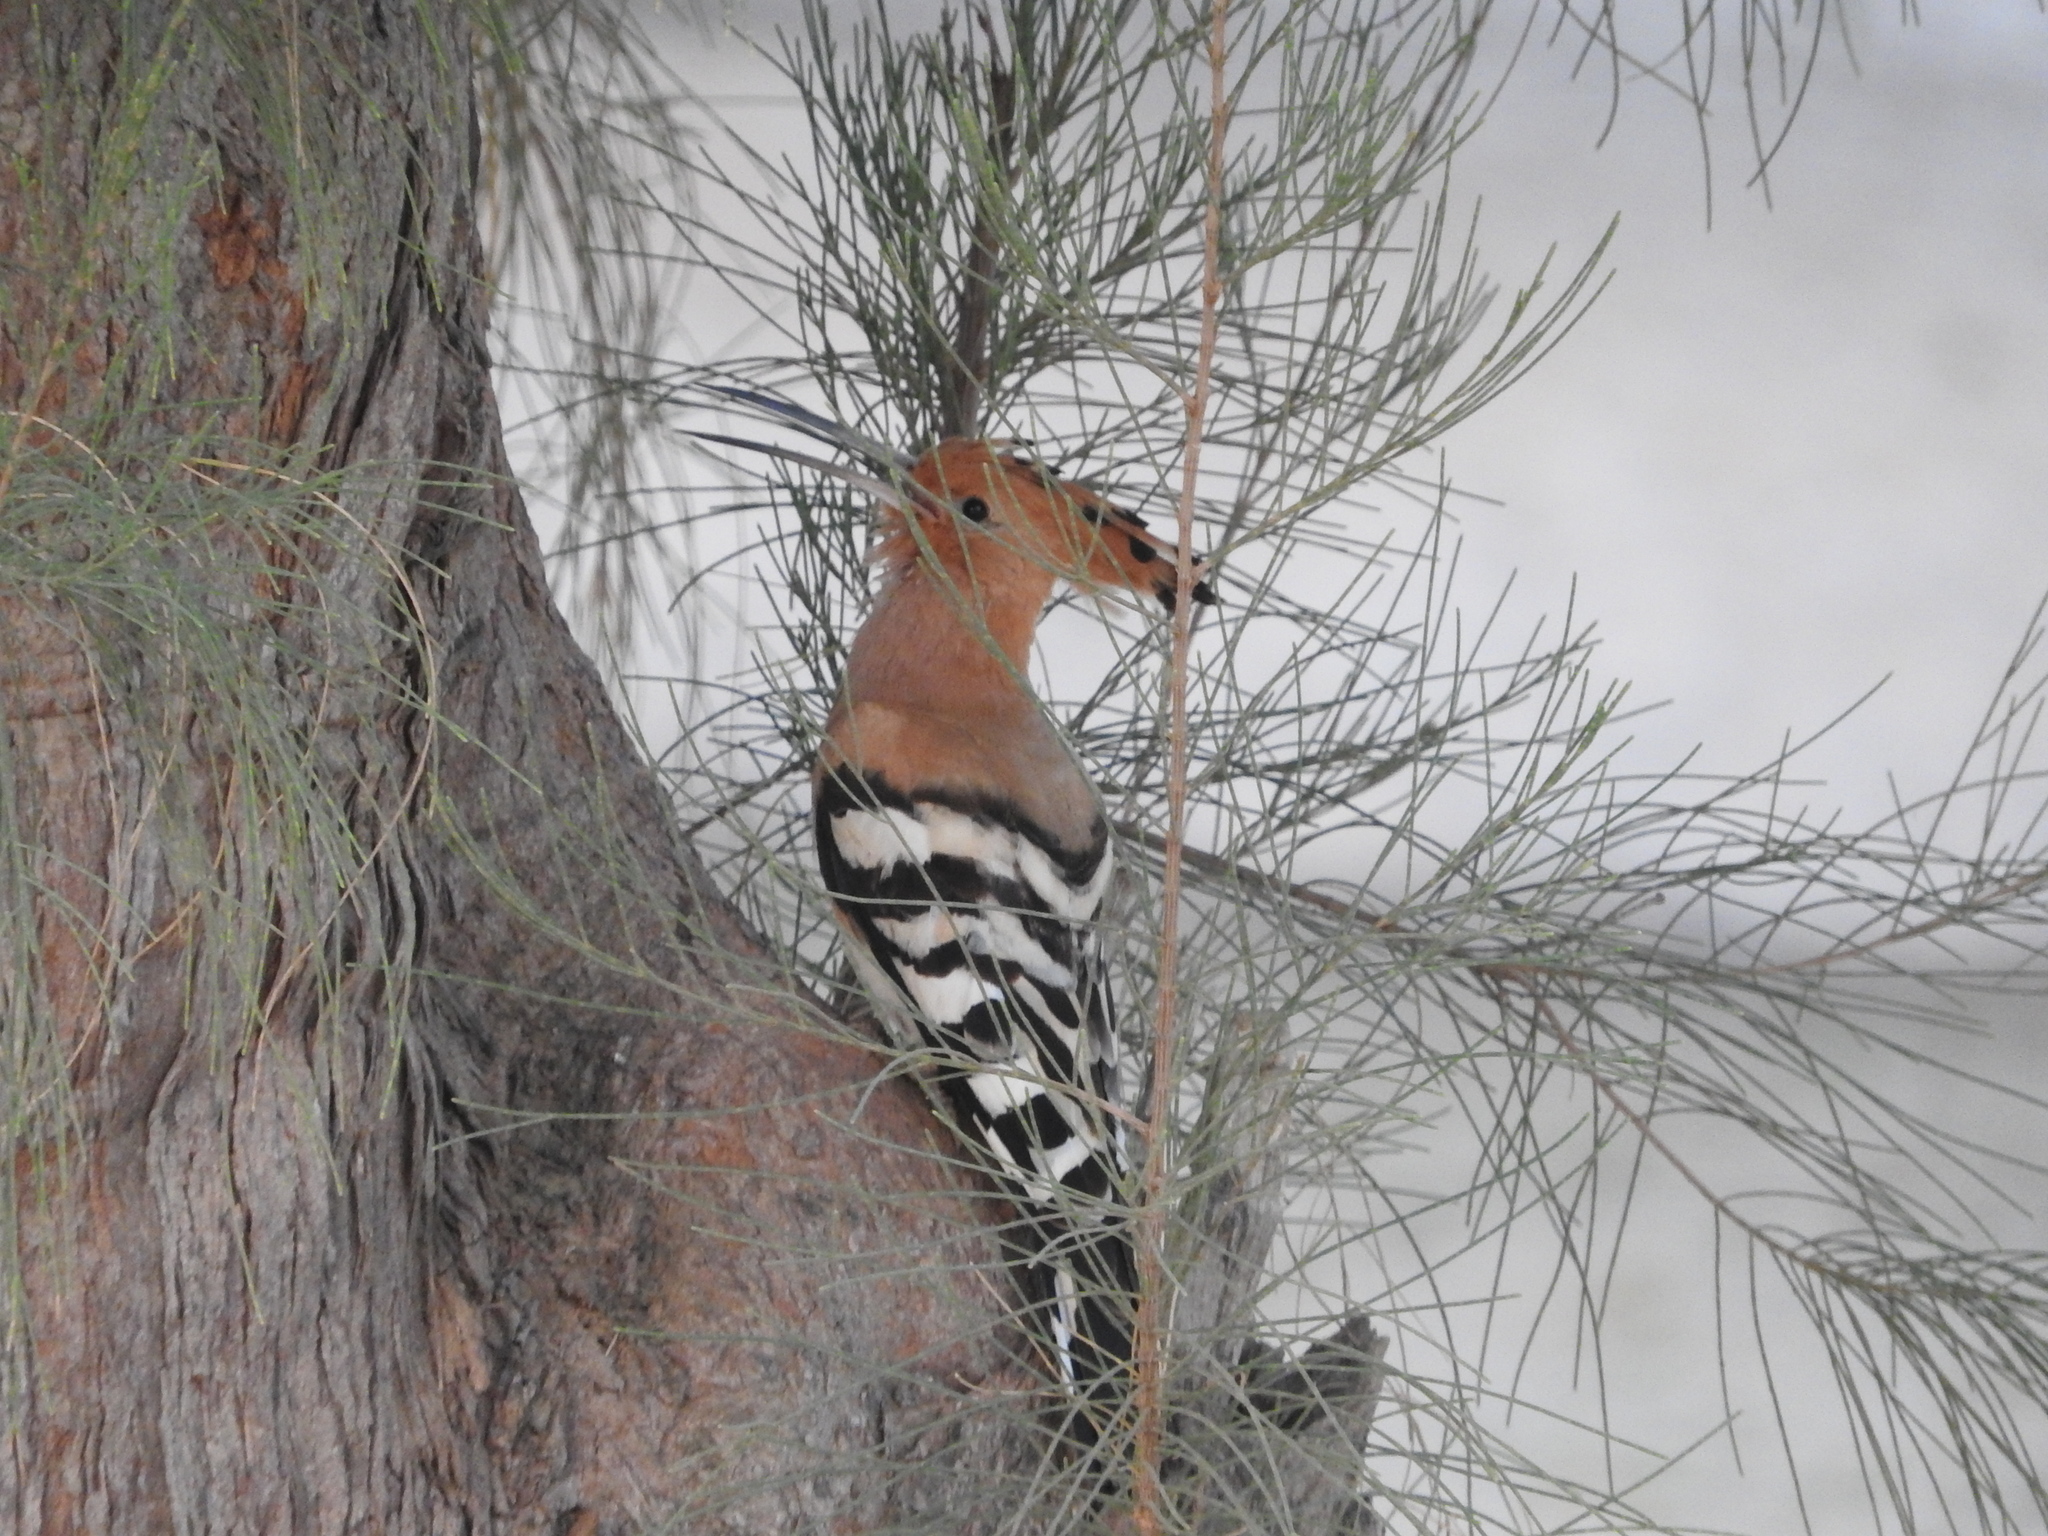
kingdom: Animalia
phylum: Chordata
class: Aves
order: Bucerotiformes
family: Upupidae
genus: Upupa
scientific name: Upupa epops
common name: Eurasian hoopoe
